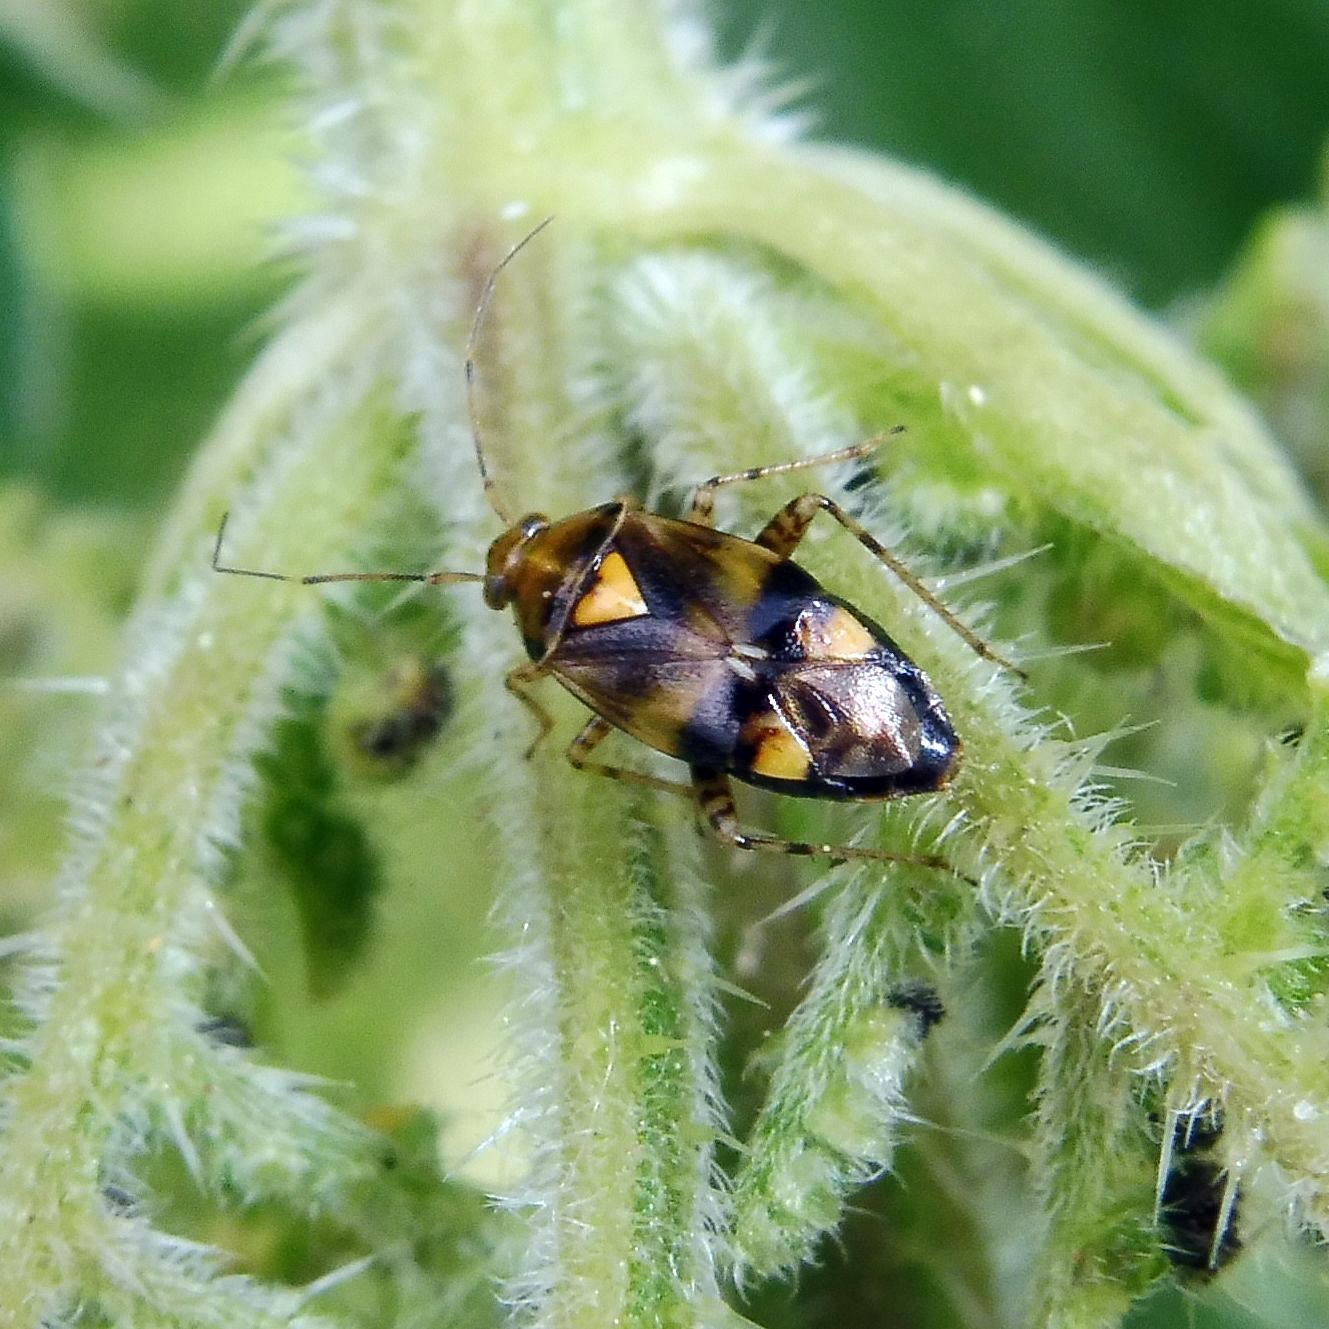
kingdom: Animalia
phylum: Arthropoda
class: Insecta
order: Hemiptera
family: Miridae
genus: Liocoris
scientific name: Liocoris tripustulatus
